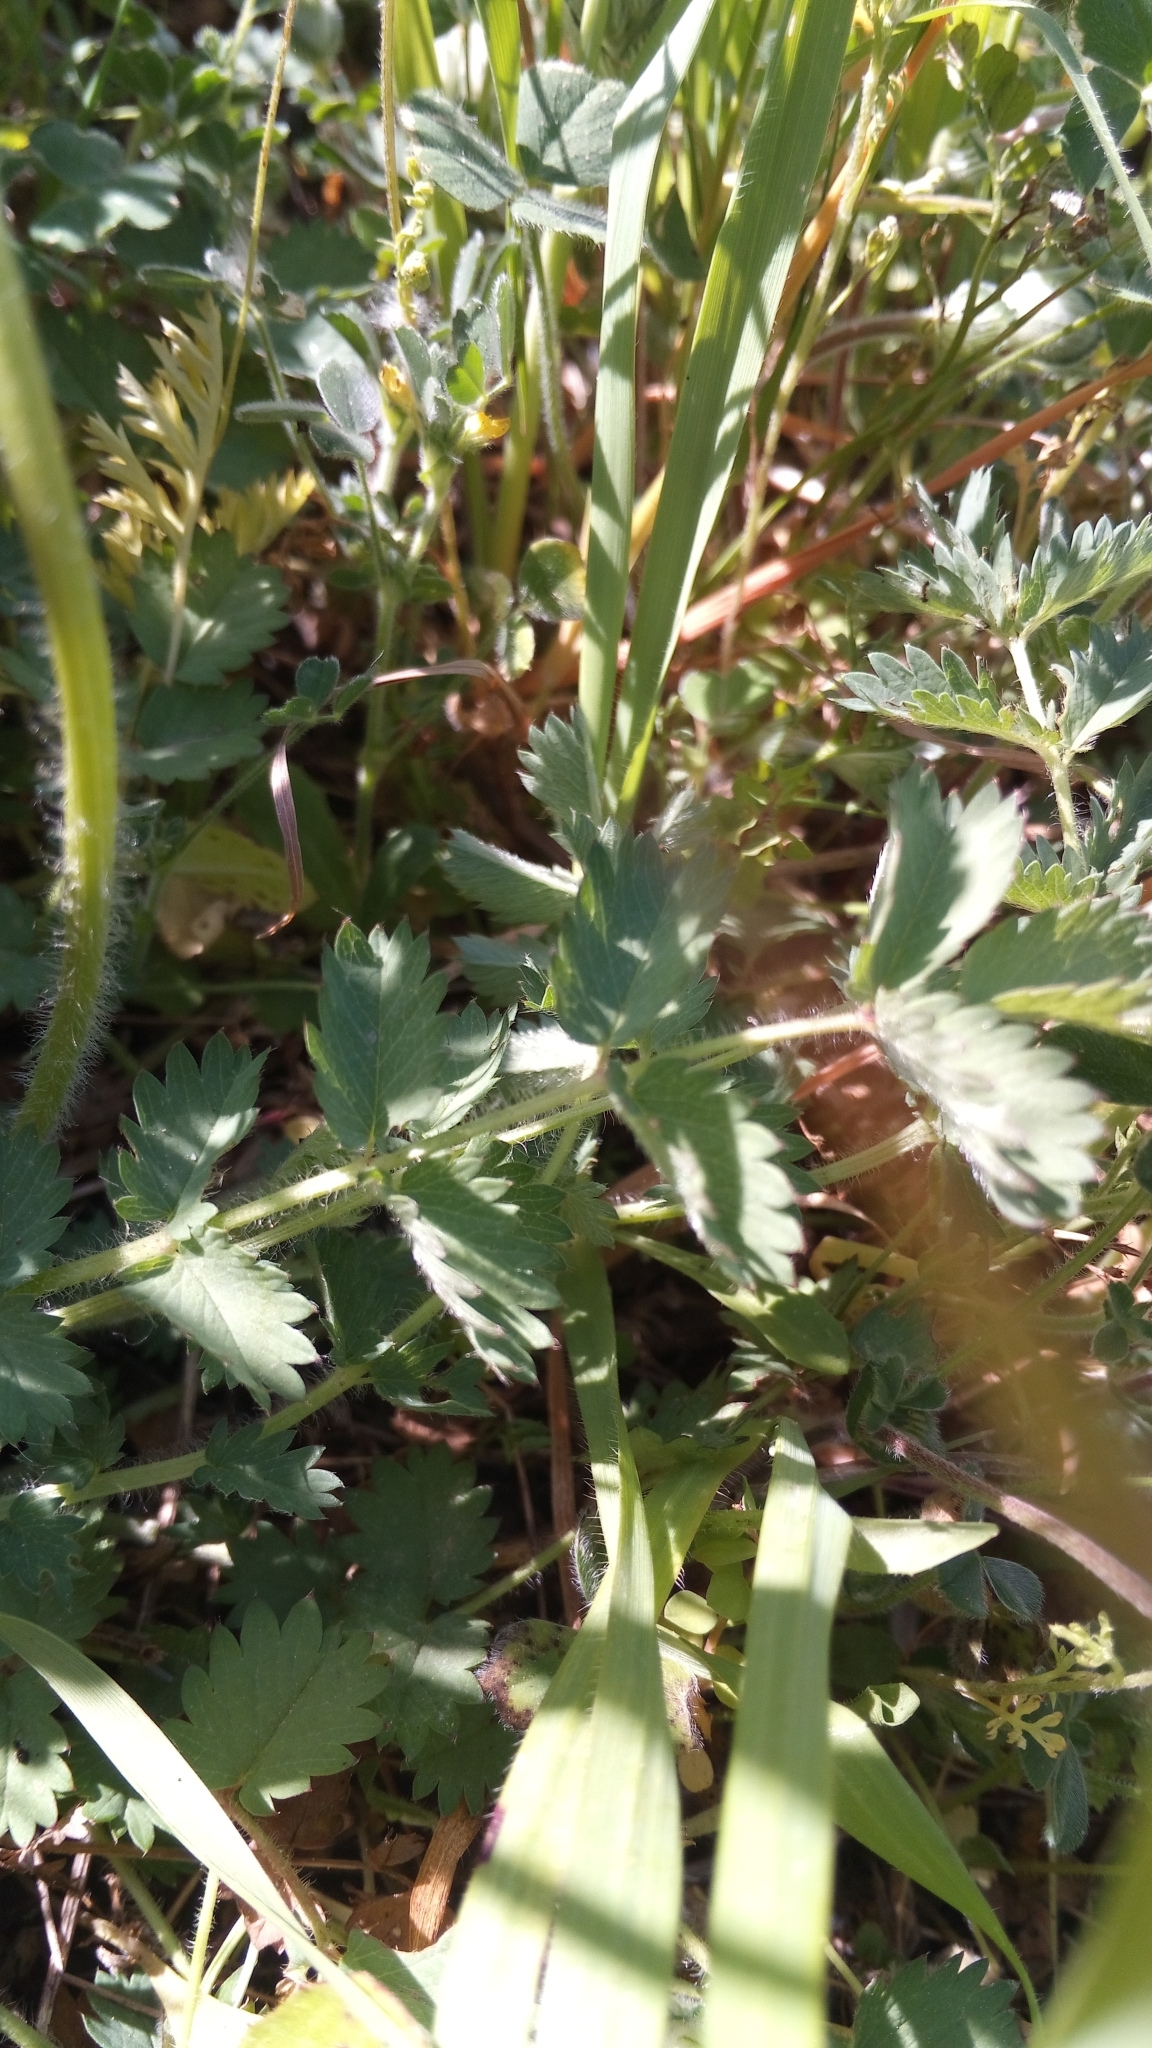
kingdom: Plantae
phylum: Tracheophyta
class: Magnoliopsida
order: Rosales
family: Rosaceae
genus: Poterium
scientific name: Poterium sanguisorba
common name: Salad burnet
